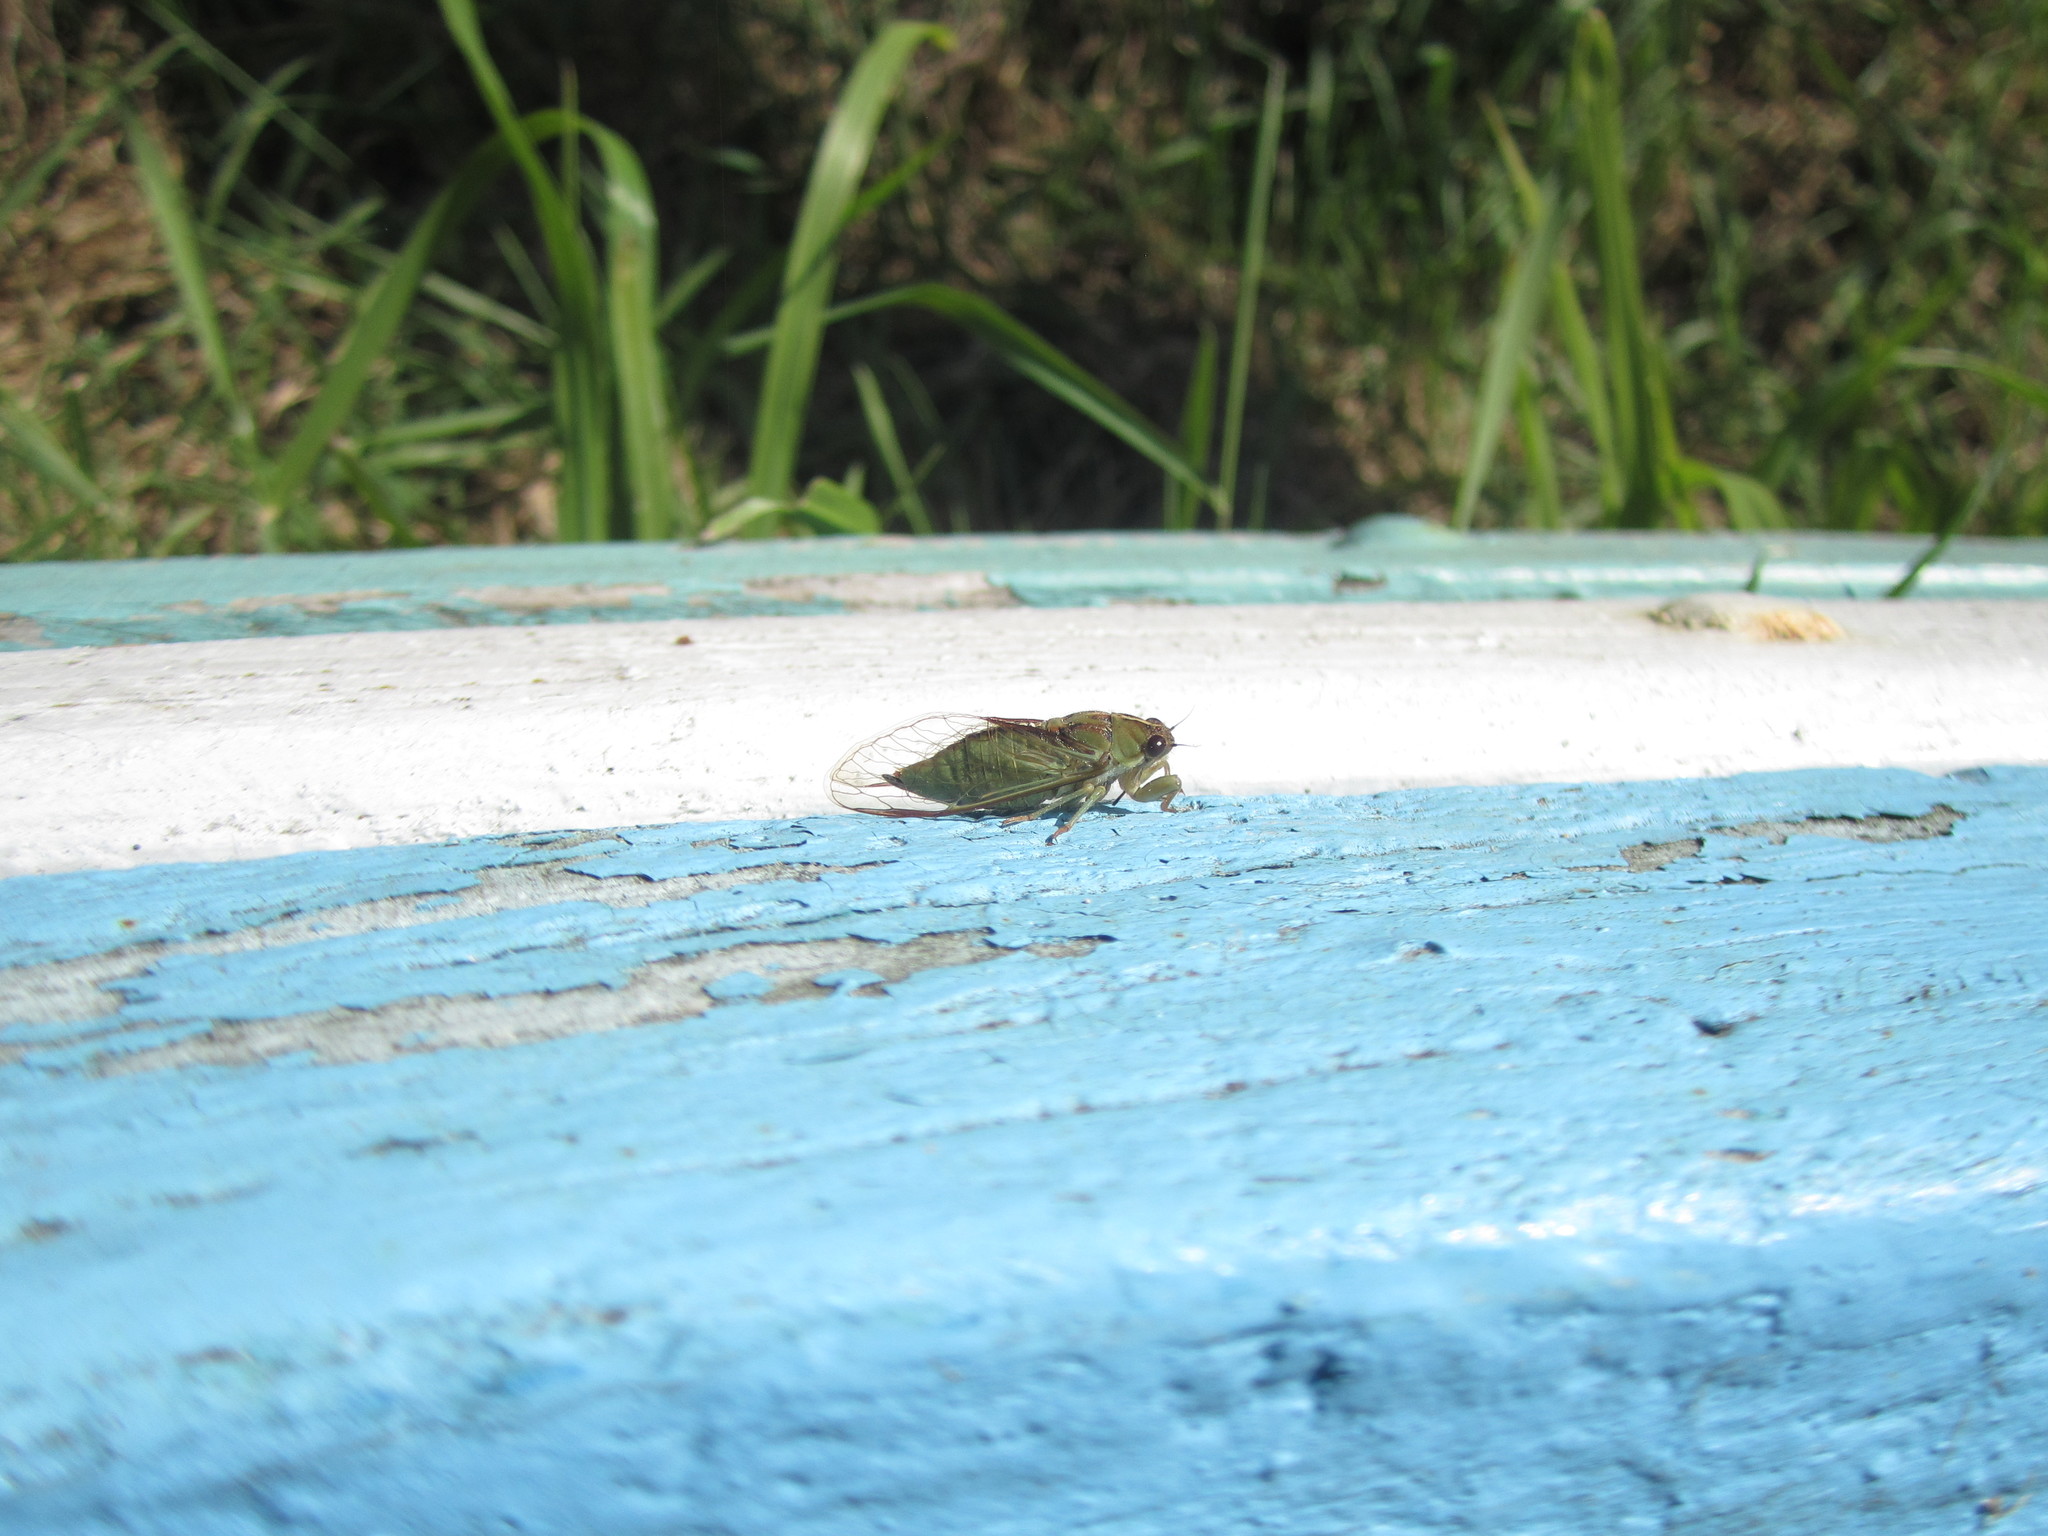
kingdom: Animalia
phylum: Arthropoda
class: Insecta
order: Hemiptera
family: Cicadidae
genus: Kikihia
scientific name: Kikihia muta
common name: Variable cicada
